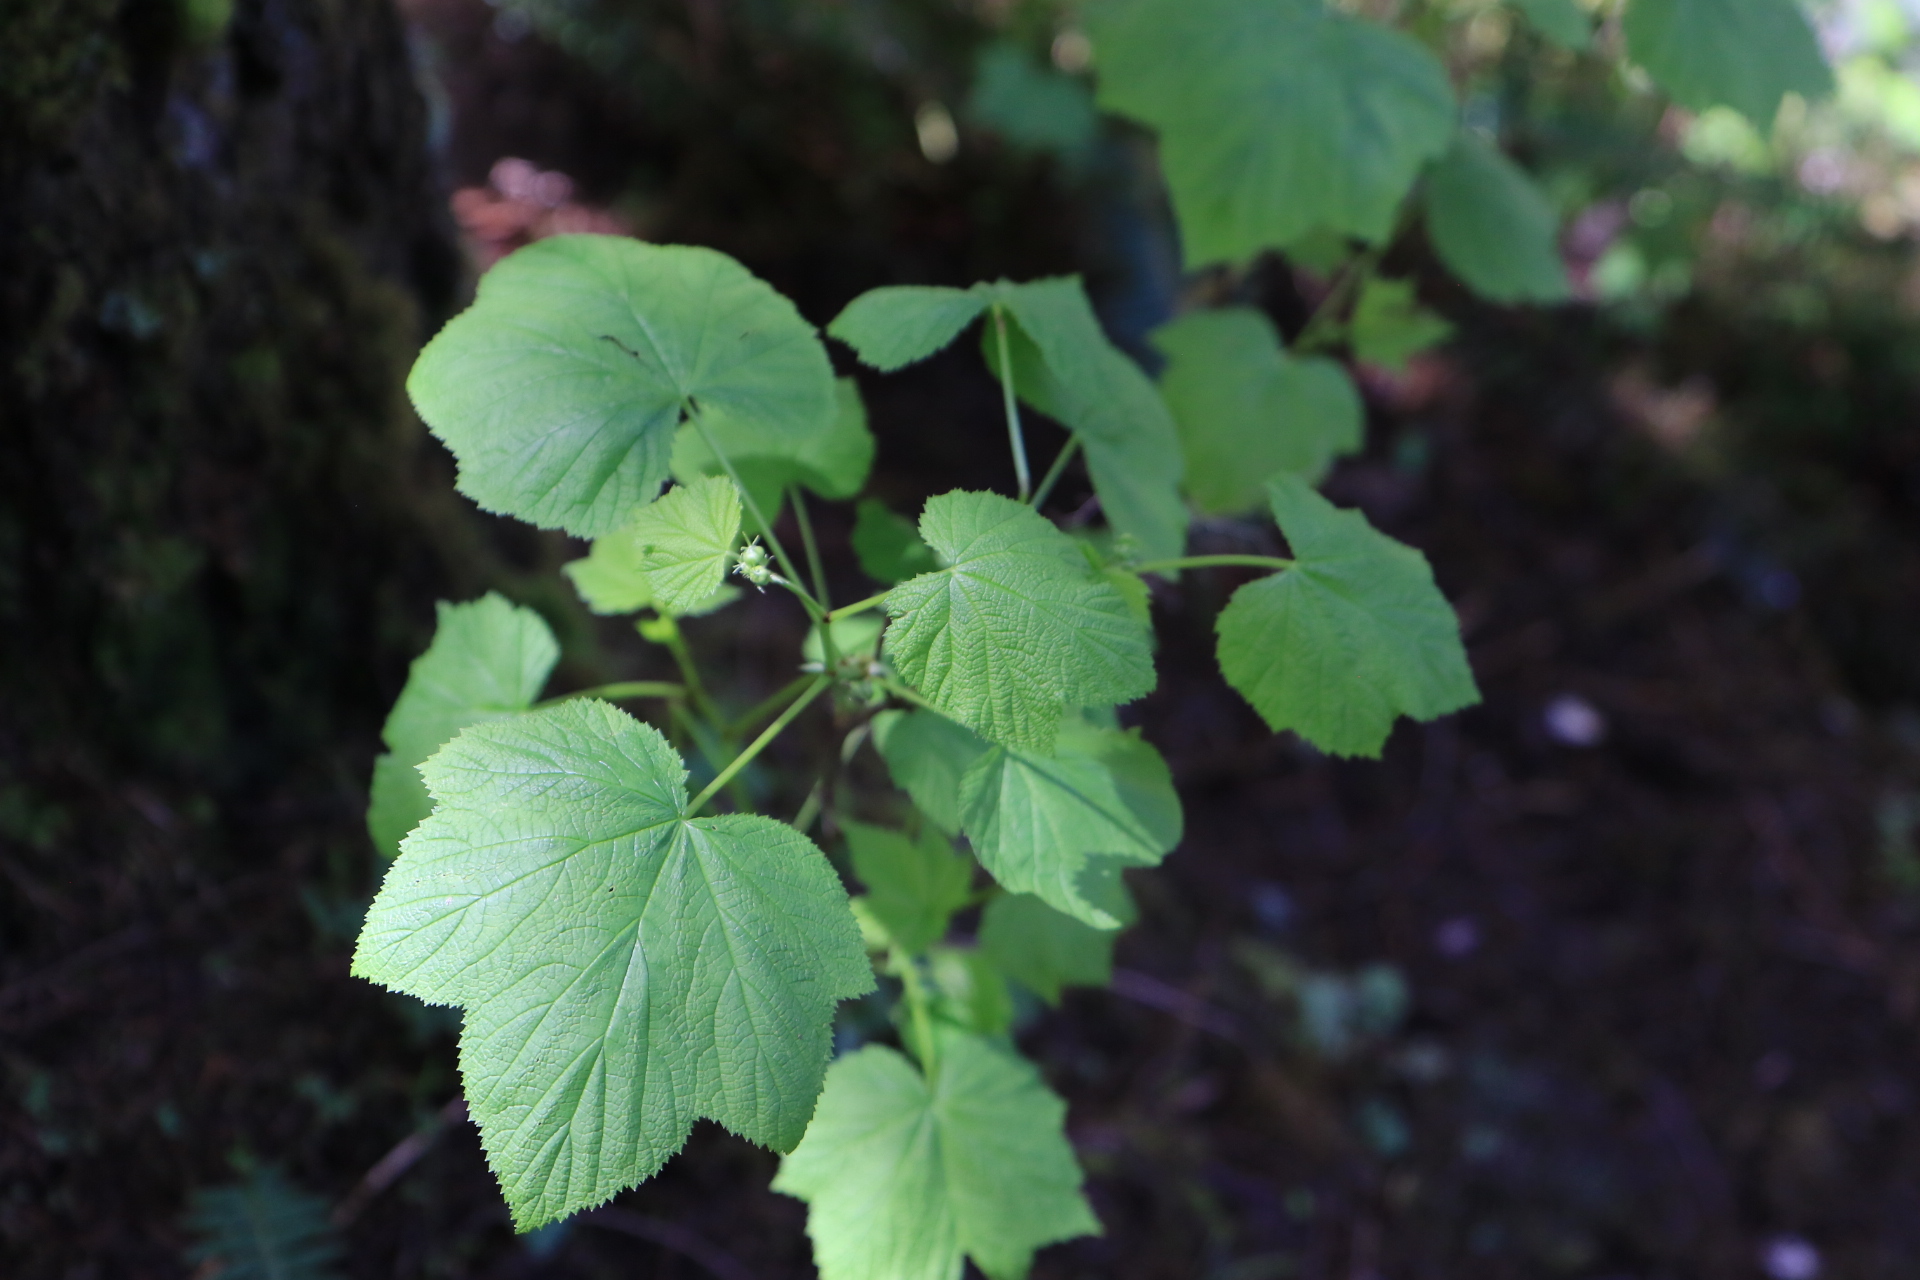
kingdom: Plantae
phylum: Tracheophyta
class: Magnoliopsida
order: Rosales
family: Rosaceae
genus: Rubus
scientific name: Rubus parviflorus
